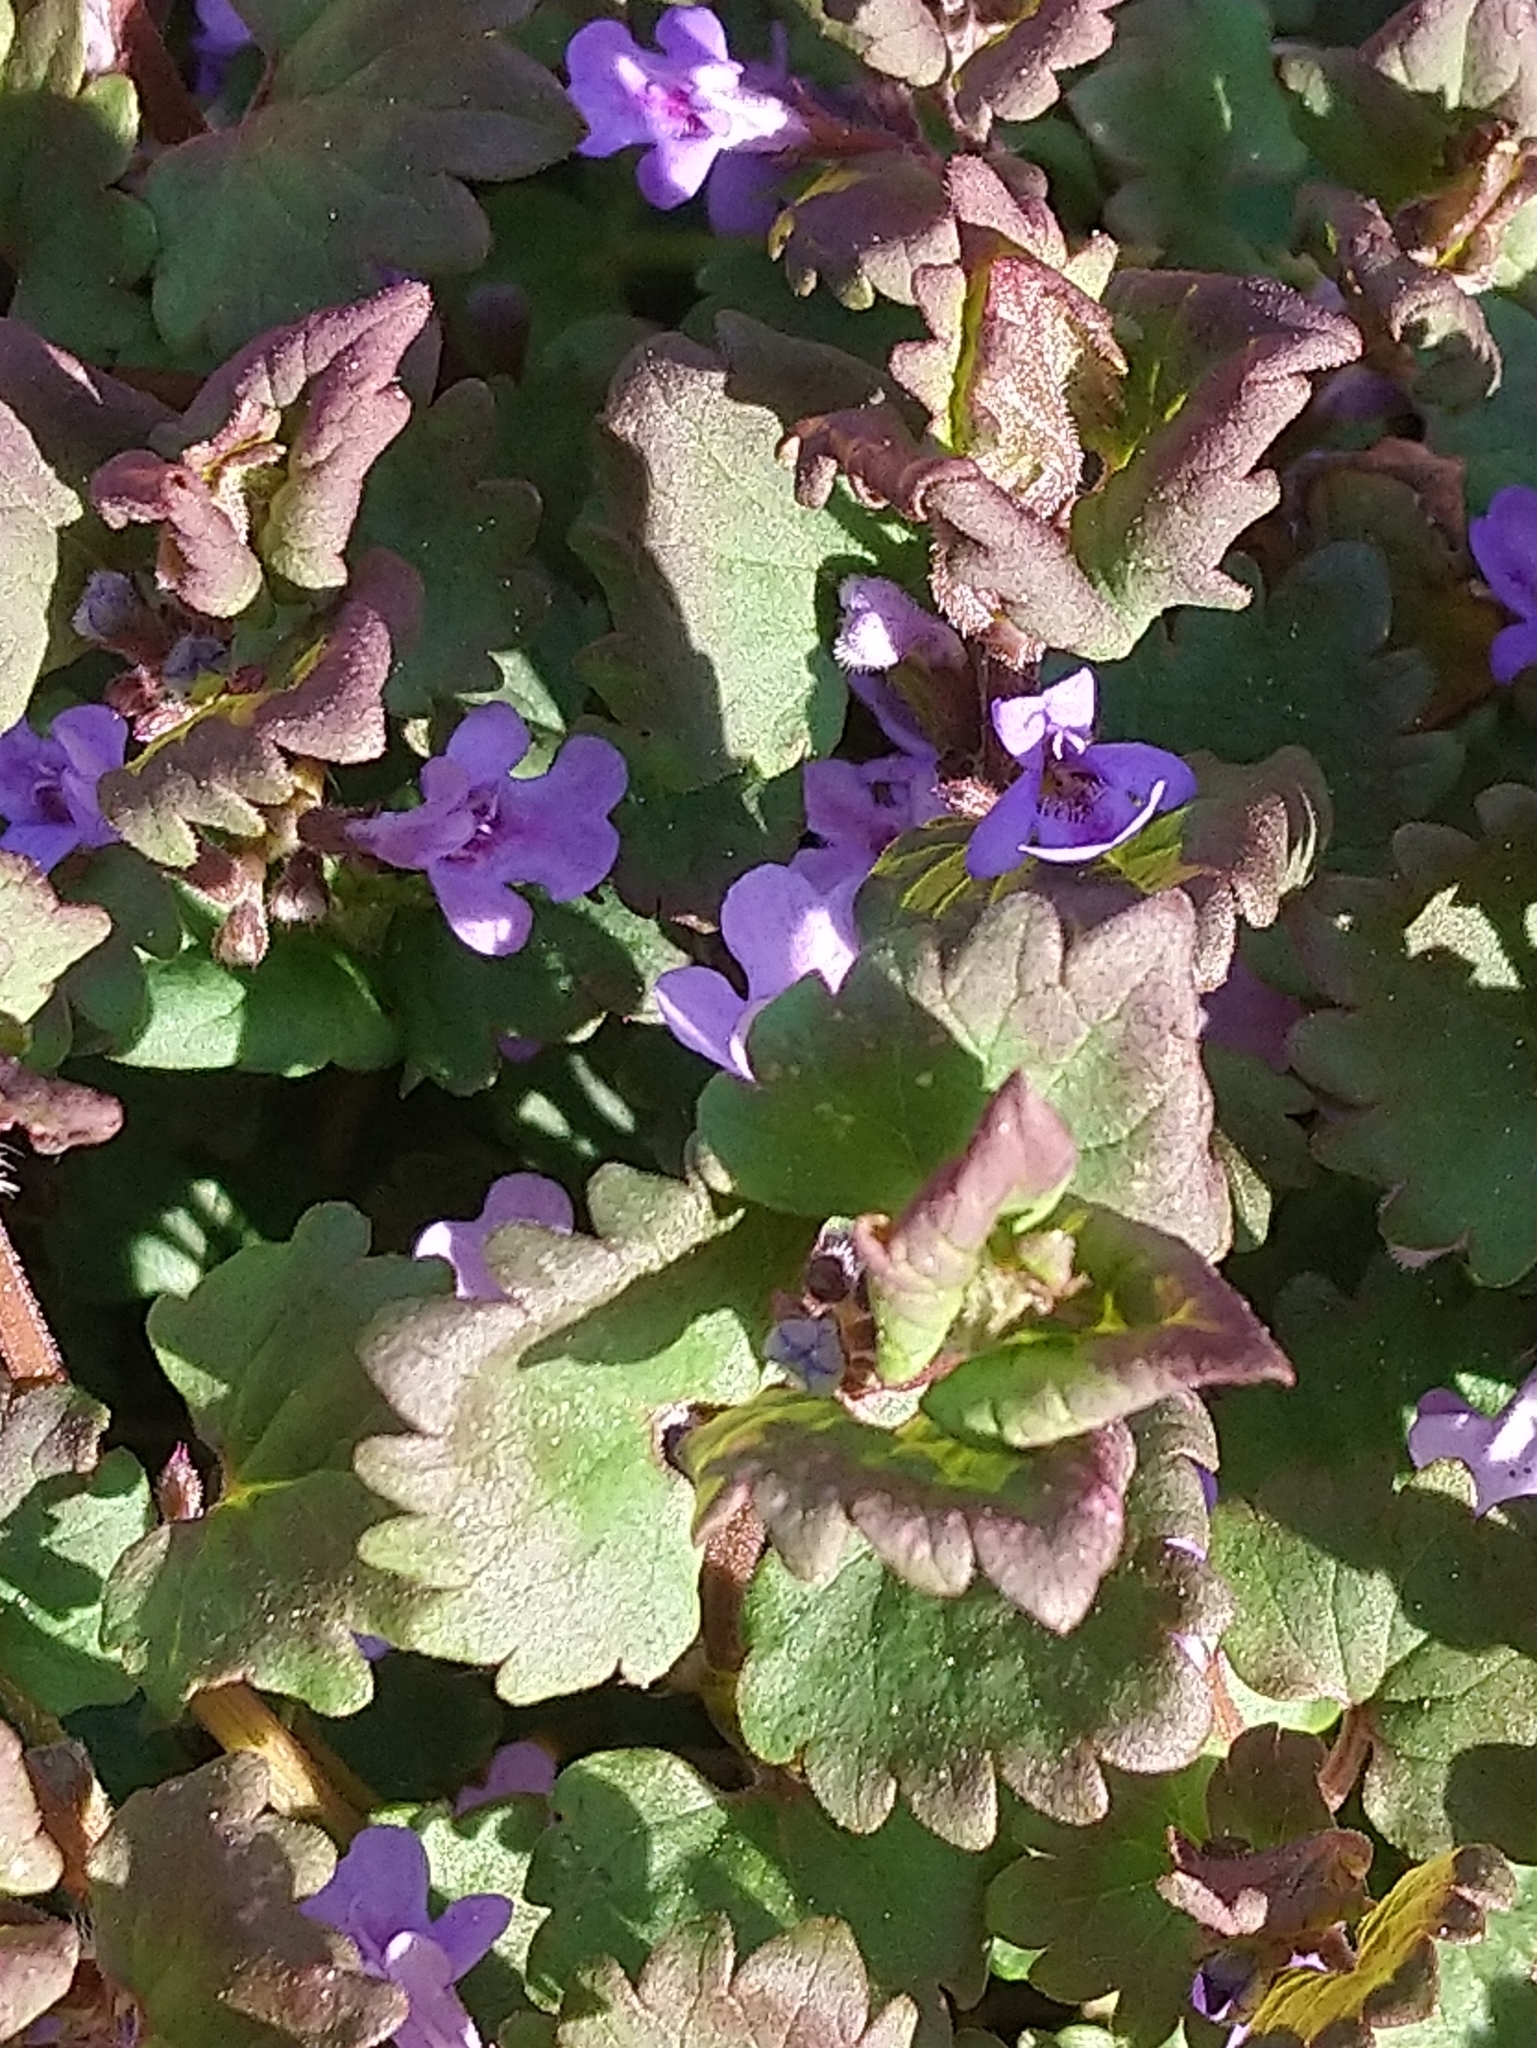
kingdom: Plantae
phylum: Tracheophyta
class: Magnoliopsida
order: Lamiales
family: Lamiaceae
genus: Glechoma
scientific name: Glechoma hederacea
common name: Ground ivy
